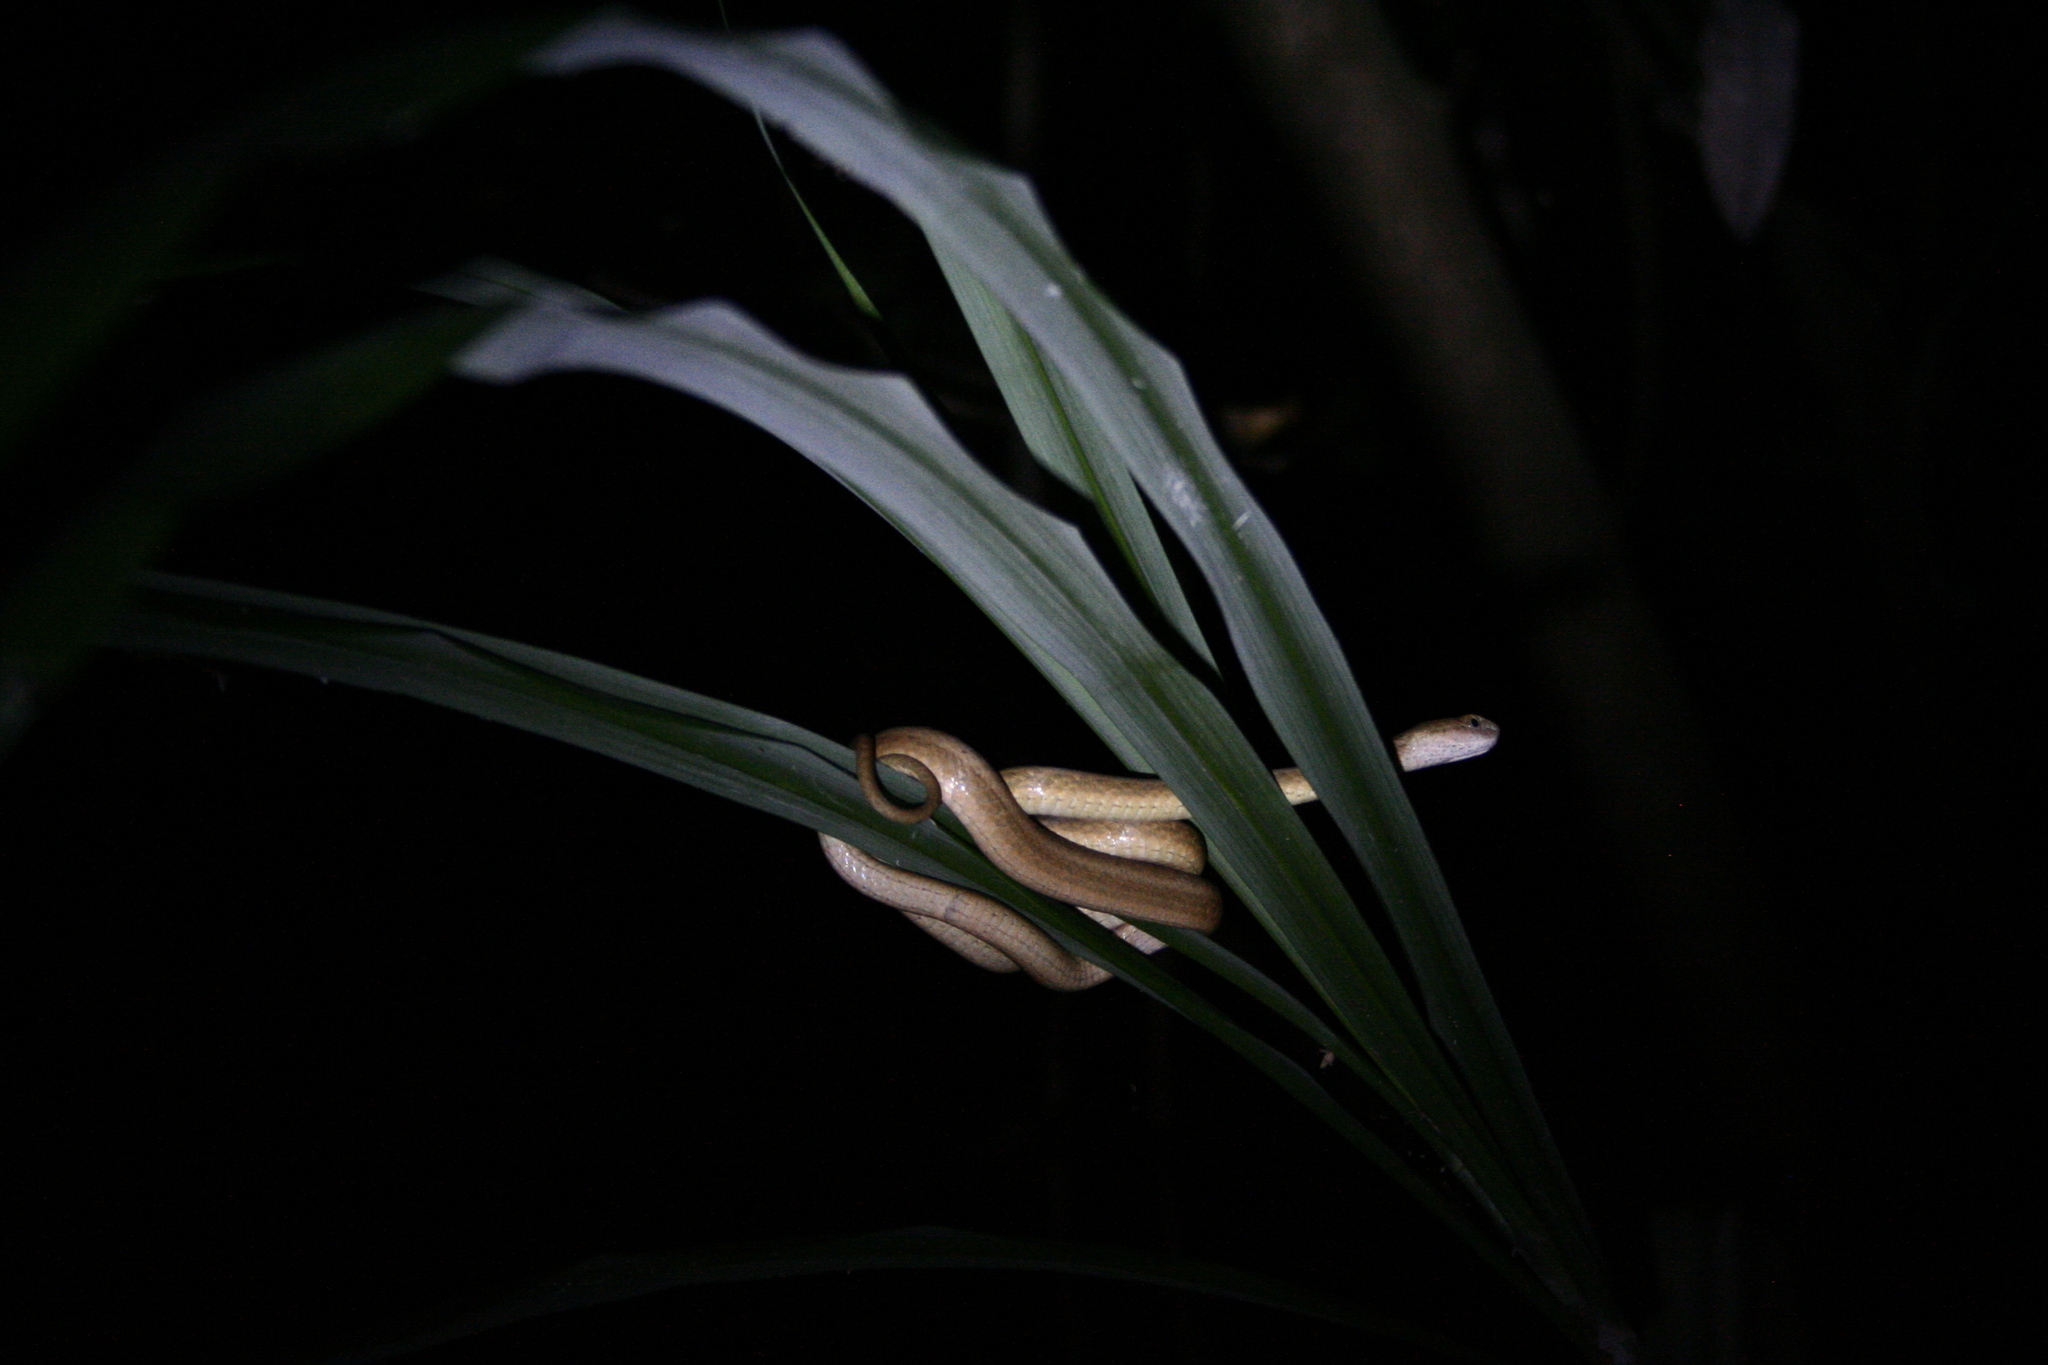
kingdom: Animalia
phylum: Chordata
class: Squamata
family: Pseudaspididae
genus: Psammodynastes
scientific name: Psammodynastes pulverulentus
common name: Common mock viper
